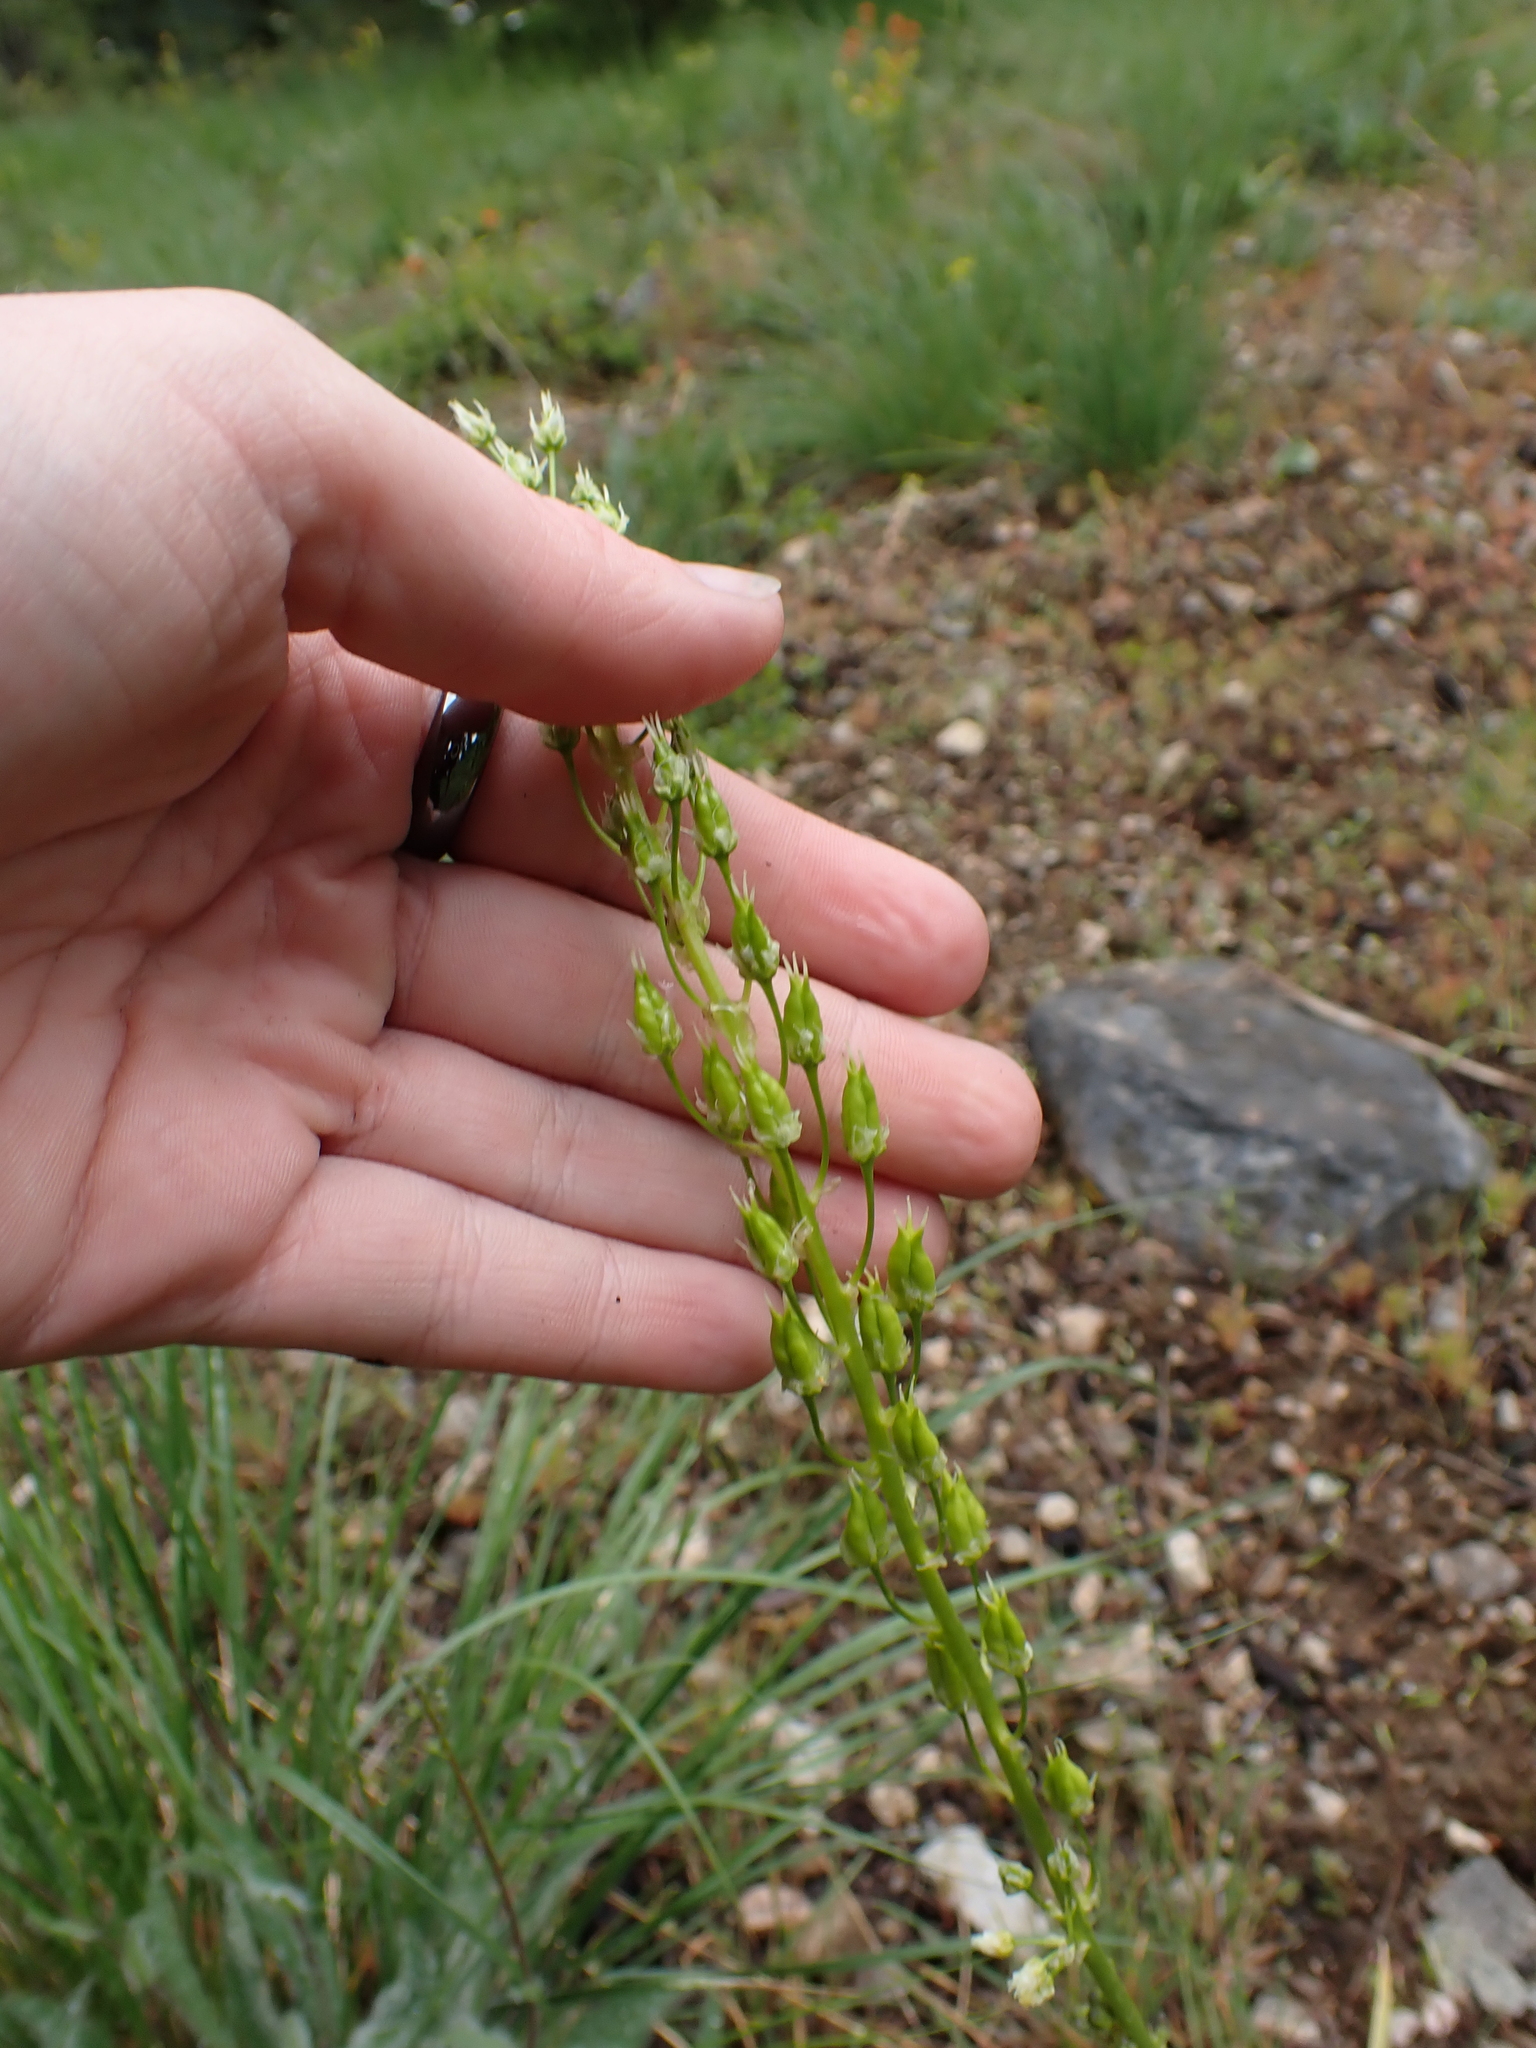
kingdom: Plantae
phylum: Tracheophyta
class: Liliopsida
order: Liliales
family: Melanthiaceae
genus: Toxicoscordion
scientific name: Toxicoscordion venenosum
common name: Meadow death camas
